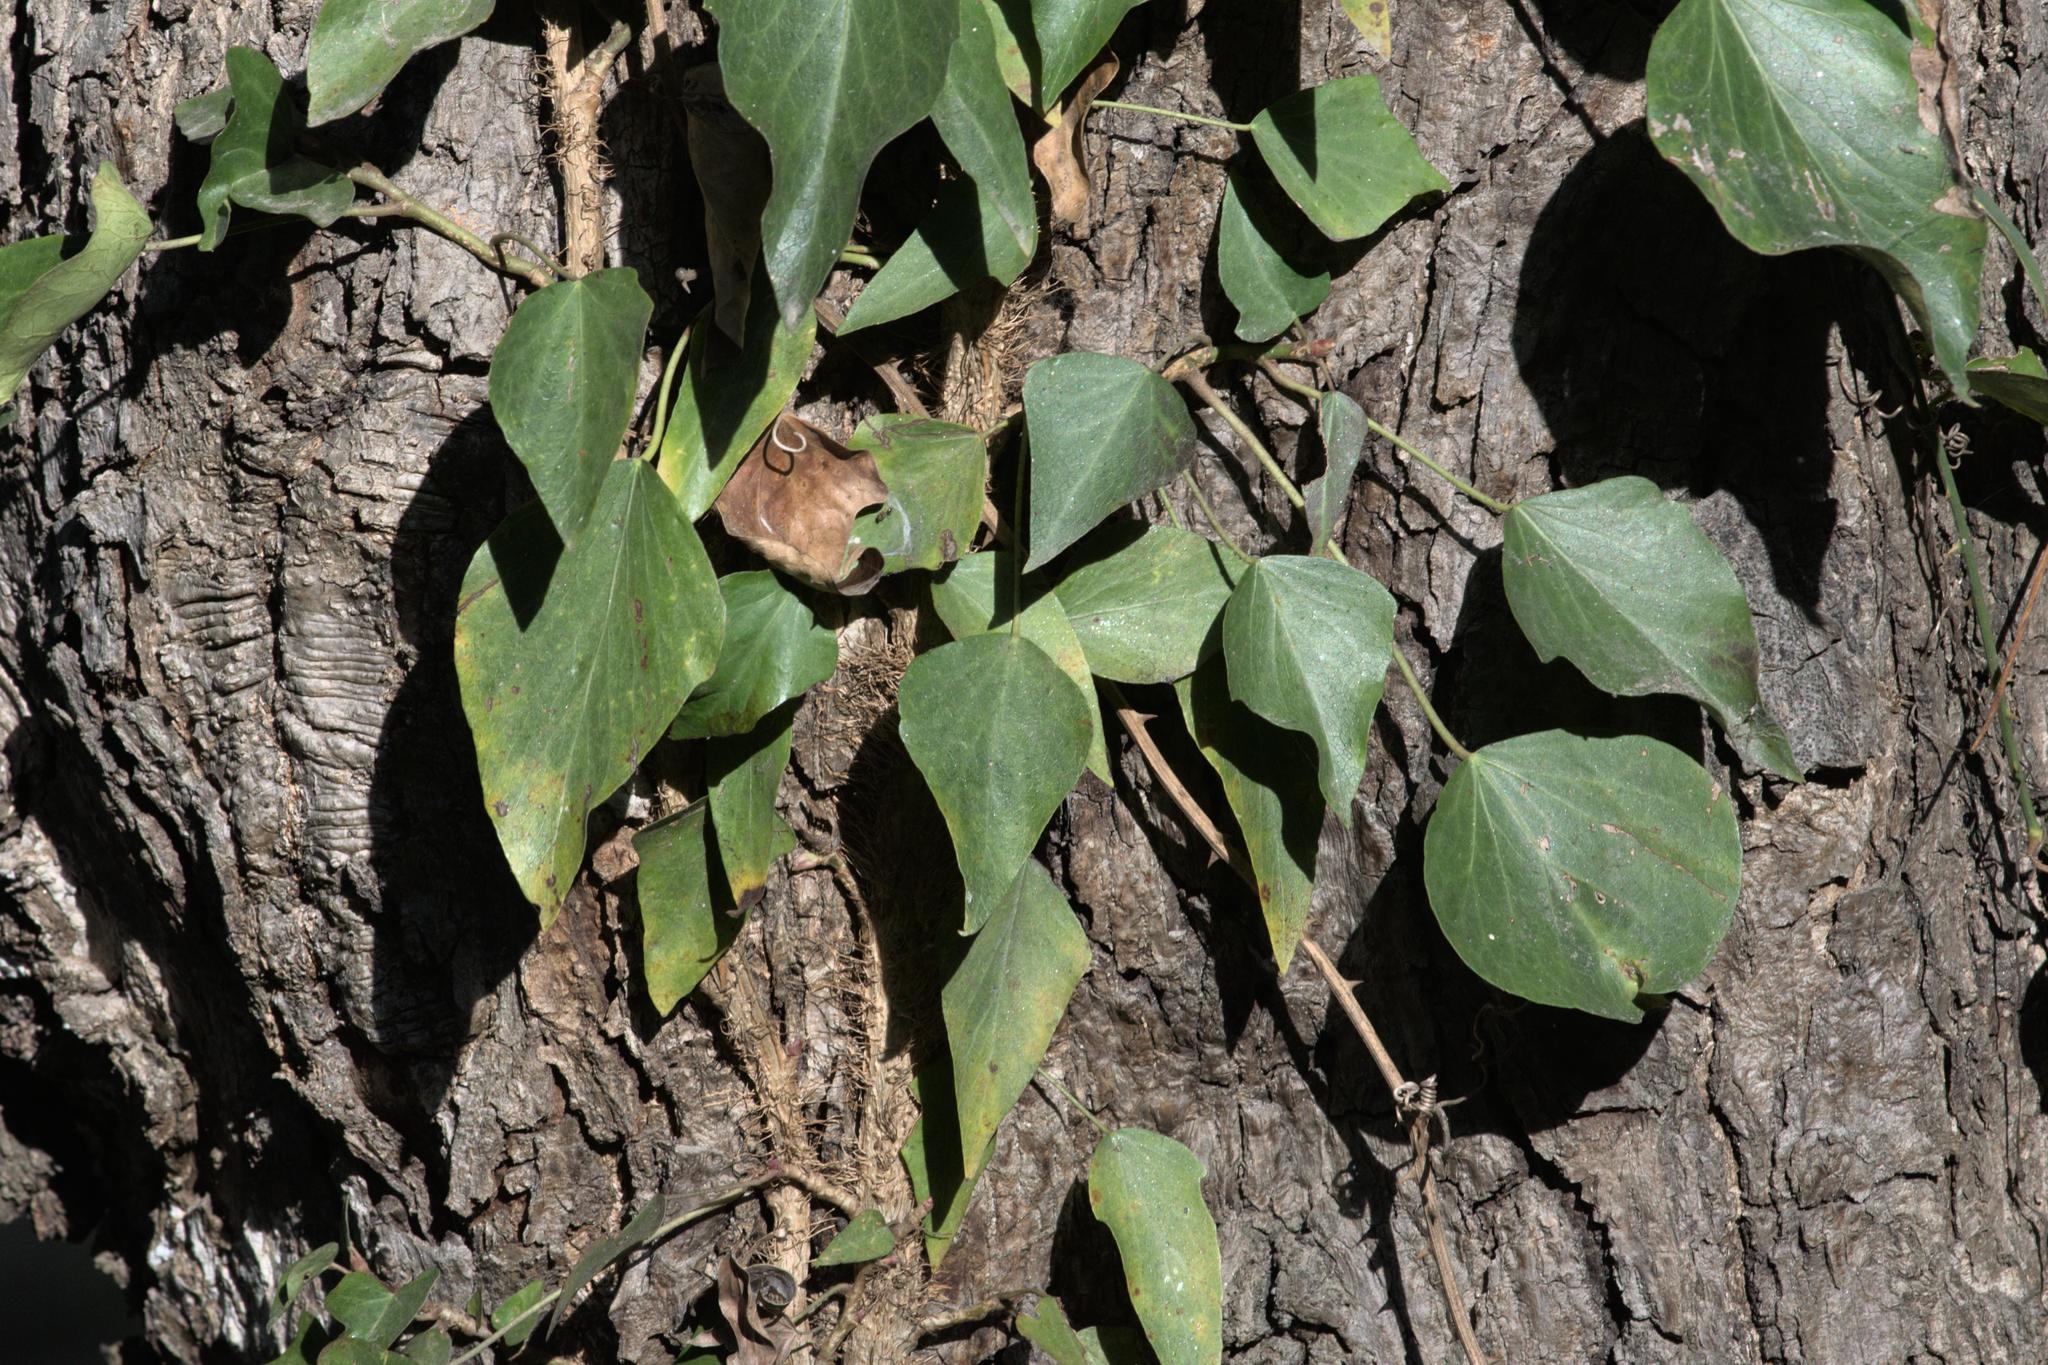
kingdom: Plantae
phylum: Tracheophyta
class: Magnoliopsida
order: Apiales
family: Araliaceae
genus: Hedera
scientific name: Hedera nepalensis
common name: Himalayan ivy
